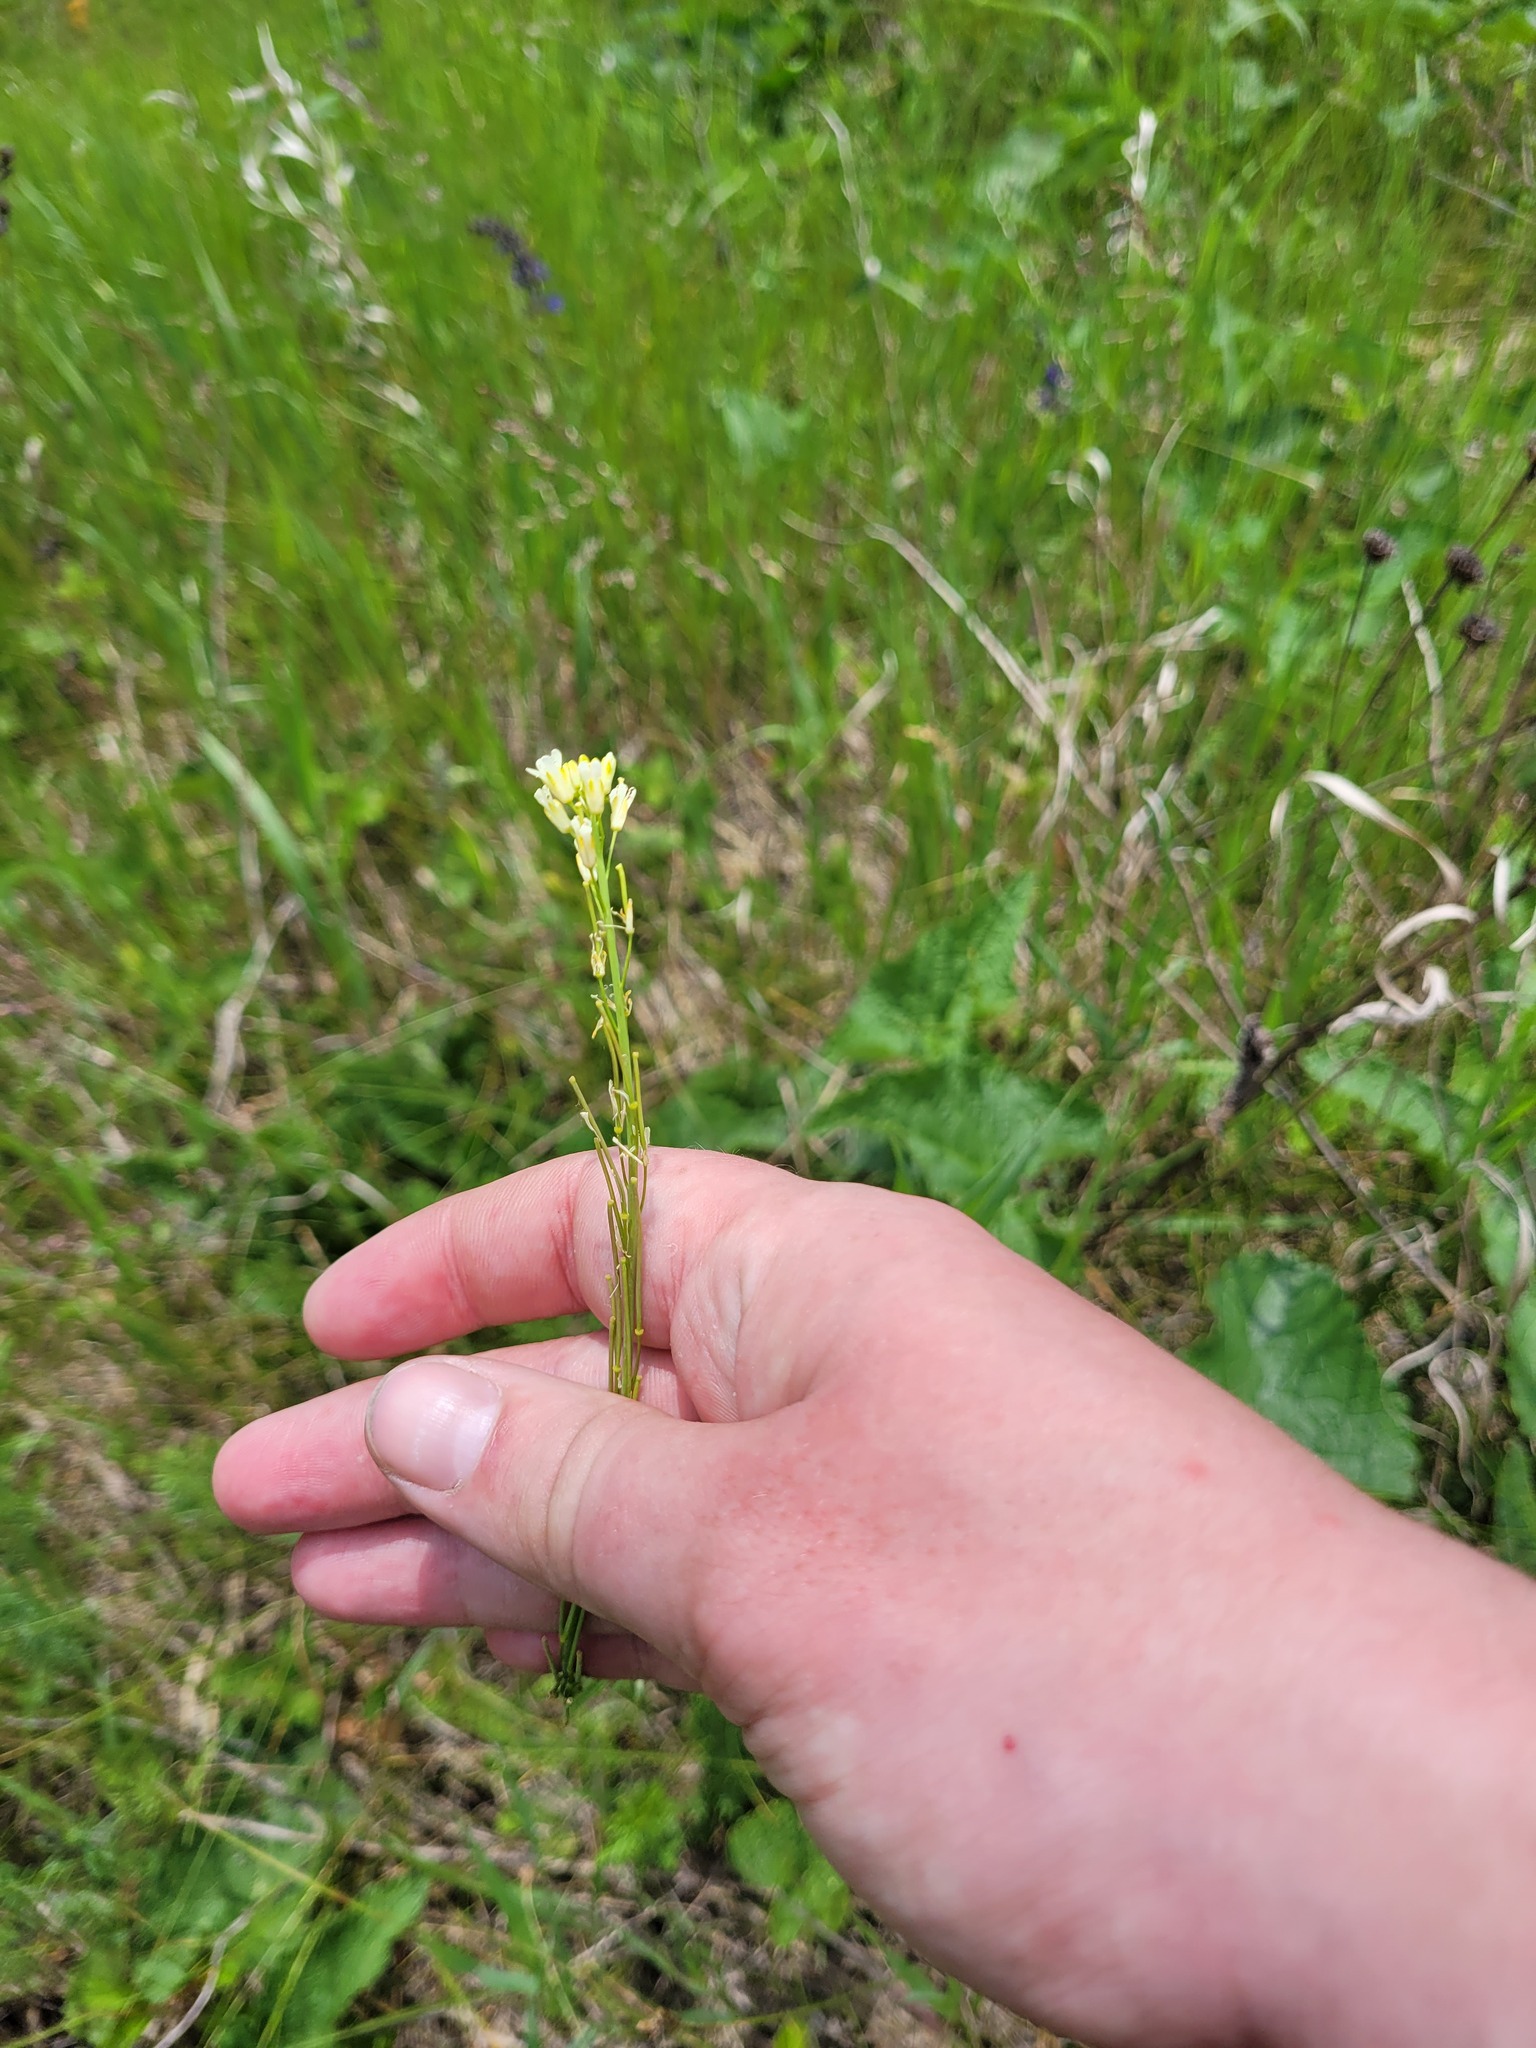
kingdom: Plantae
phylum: Tracheophyta
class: Magnoliopsida
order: Brassicales
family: Brassicaceae
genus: Turritis
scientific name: Turritis glabra
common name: Tower rockcress
